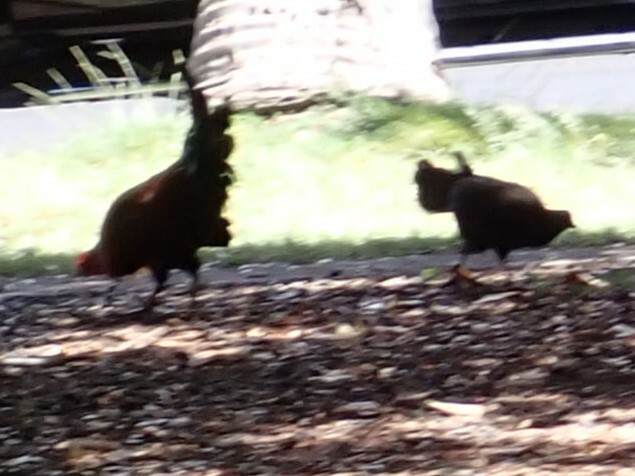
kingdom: Animalia
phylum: Chordata
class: Aves
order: Galliformes
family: Phasianidae
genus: Gallus
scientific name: Gallus gallus
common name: Red junglefowl
